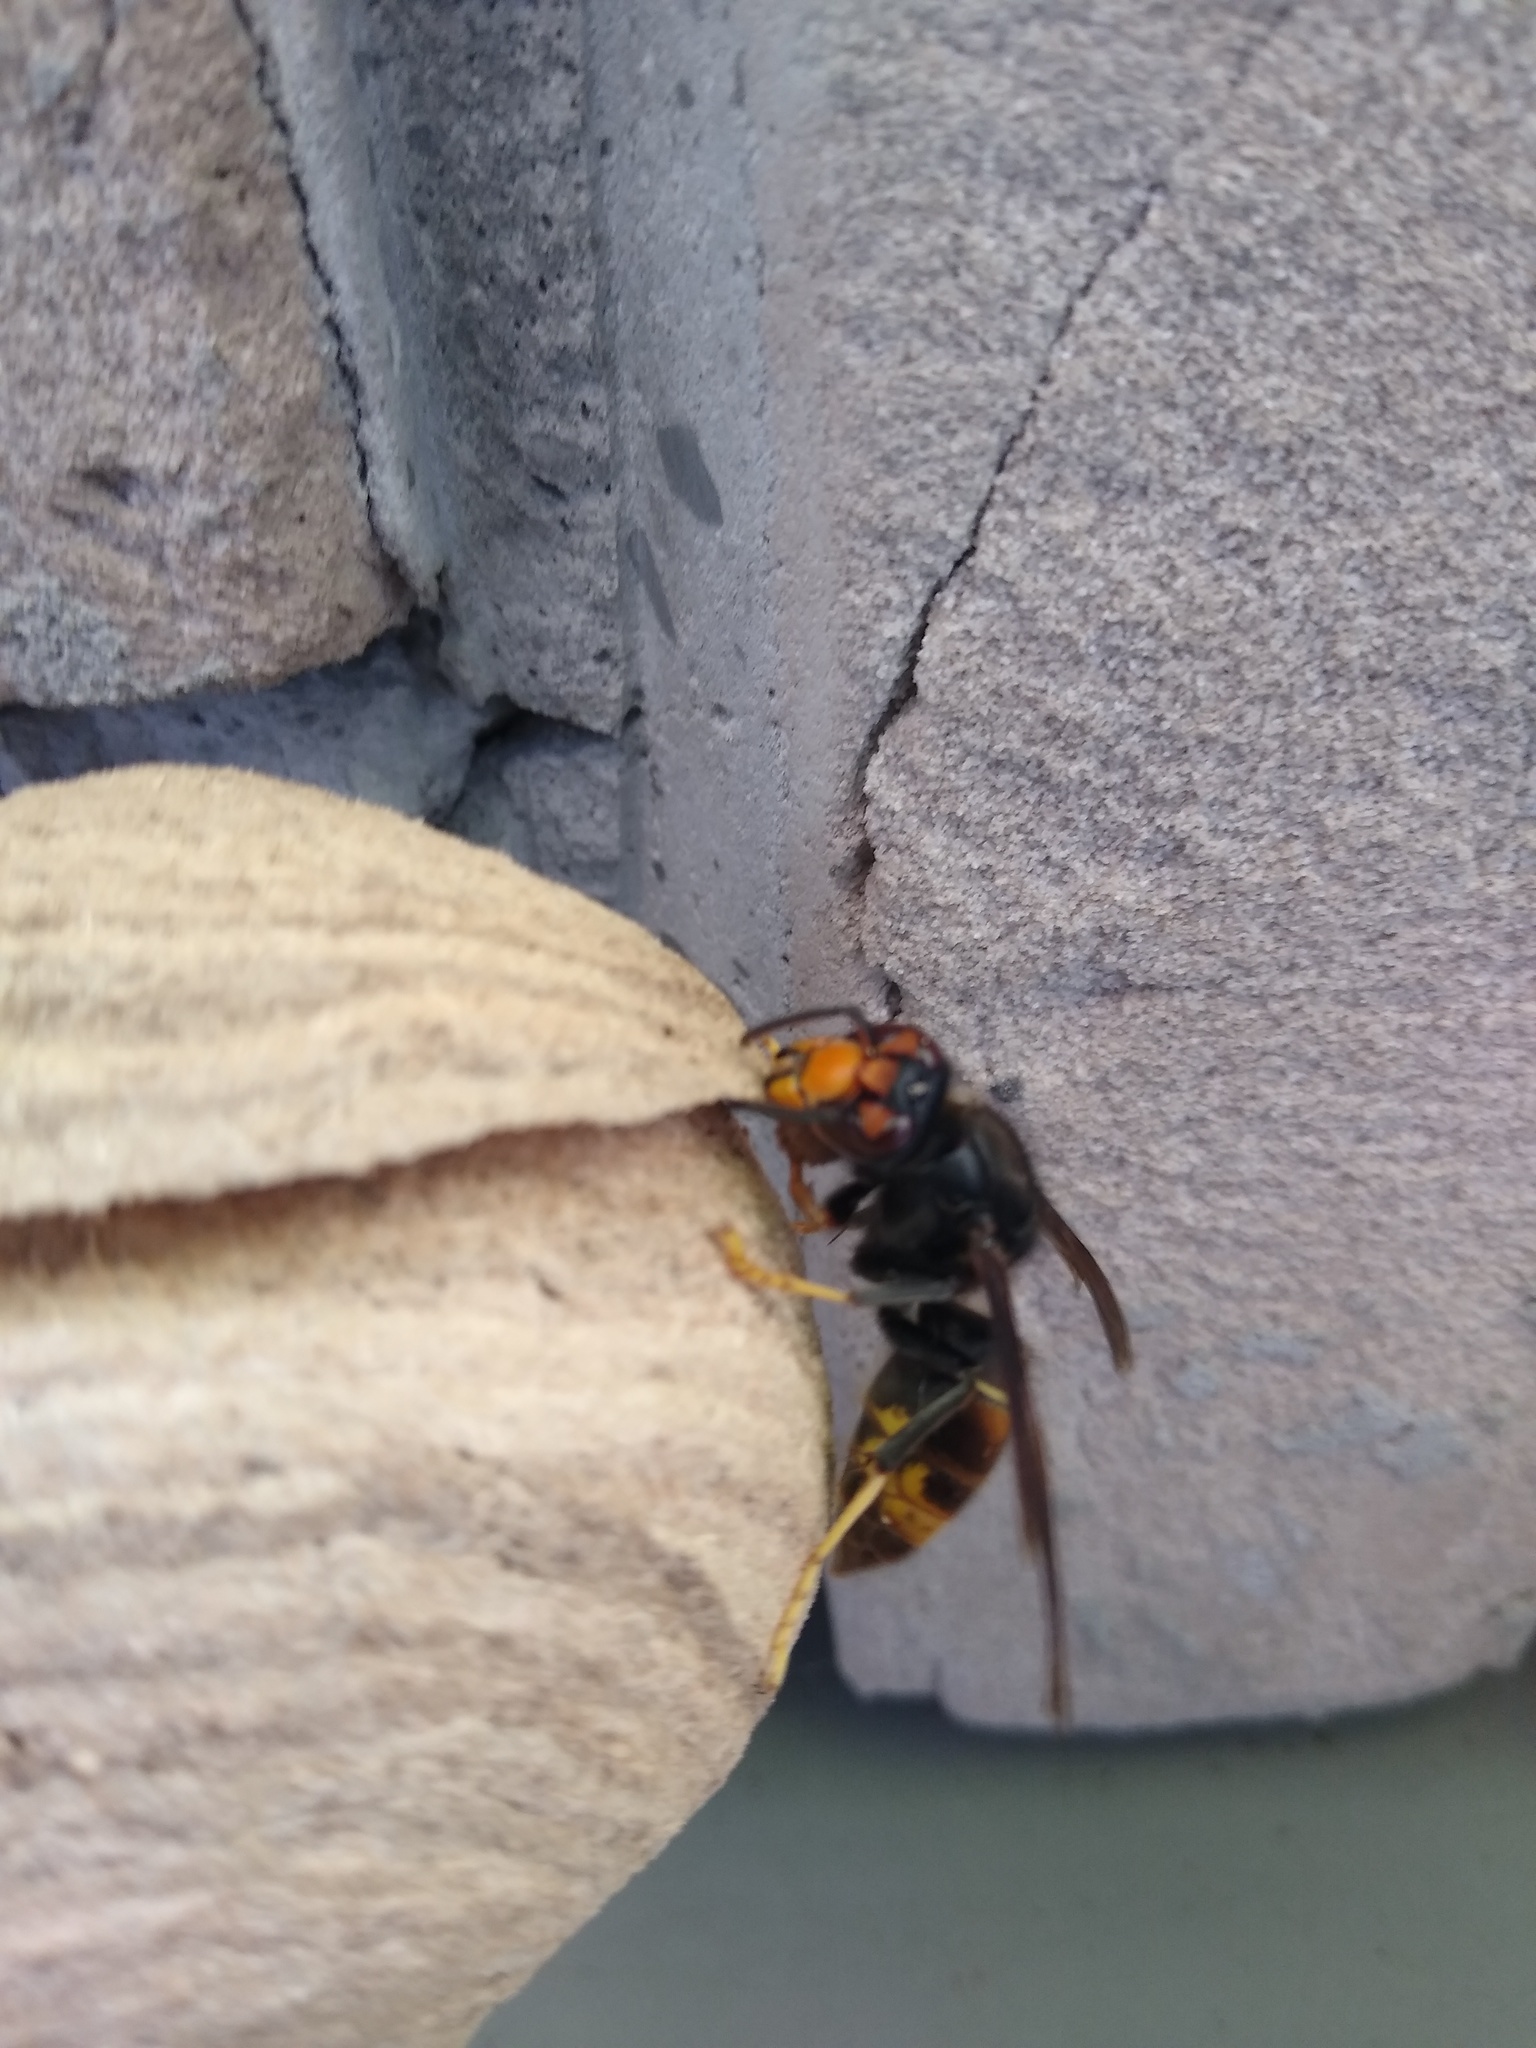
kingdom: Animalia
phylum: Arthropoda
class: Insecta
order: Hymenoptera
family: Vespidae
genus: Vespa
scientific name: Vespa velutina
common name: Asian hornet
